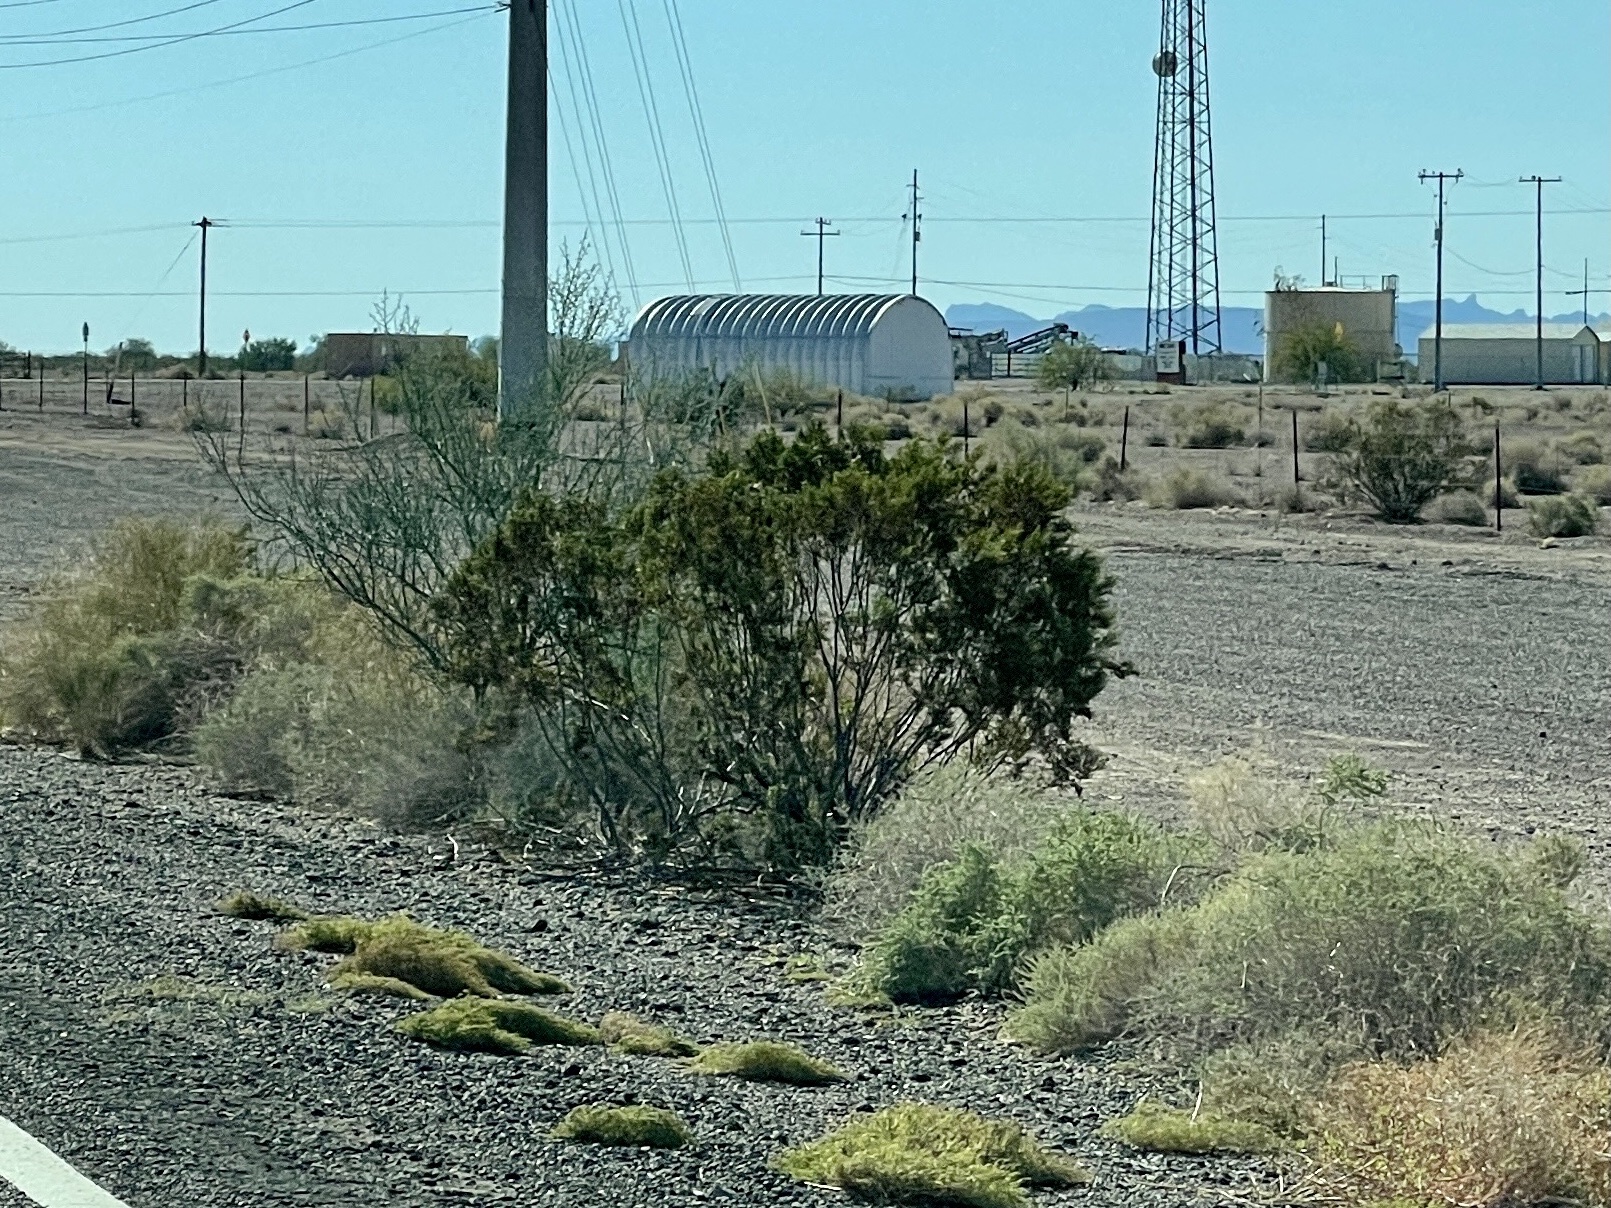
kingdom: Plantae
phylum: Tracheophyta
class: Magnoliopsida
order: Zygophyllales
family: Zygophyllaceae
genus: Larrea
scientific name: Larrea tridentata
